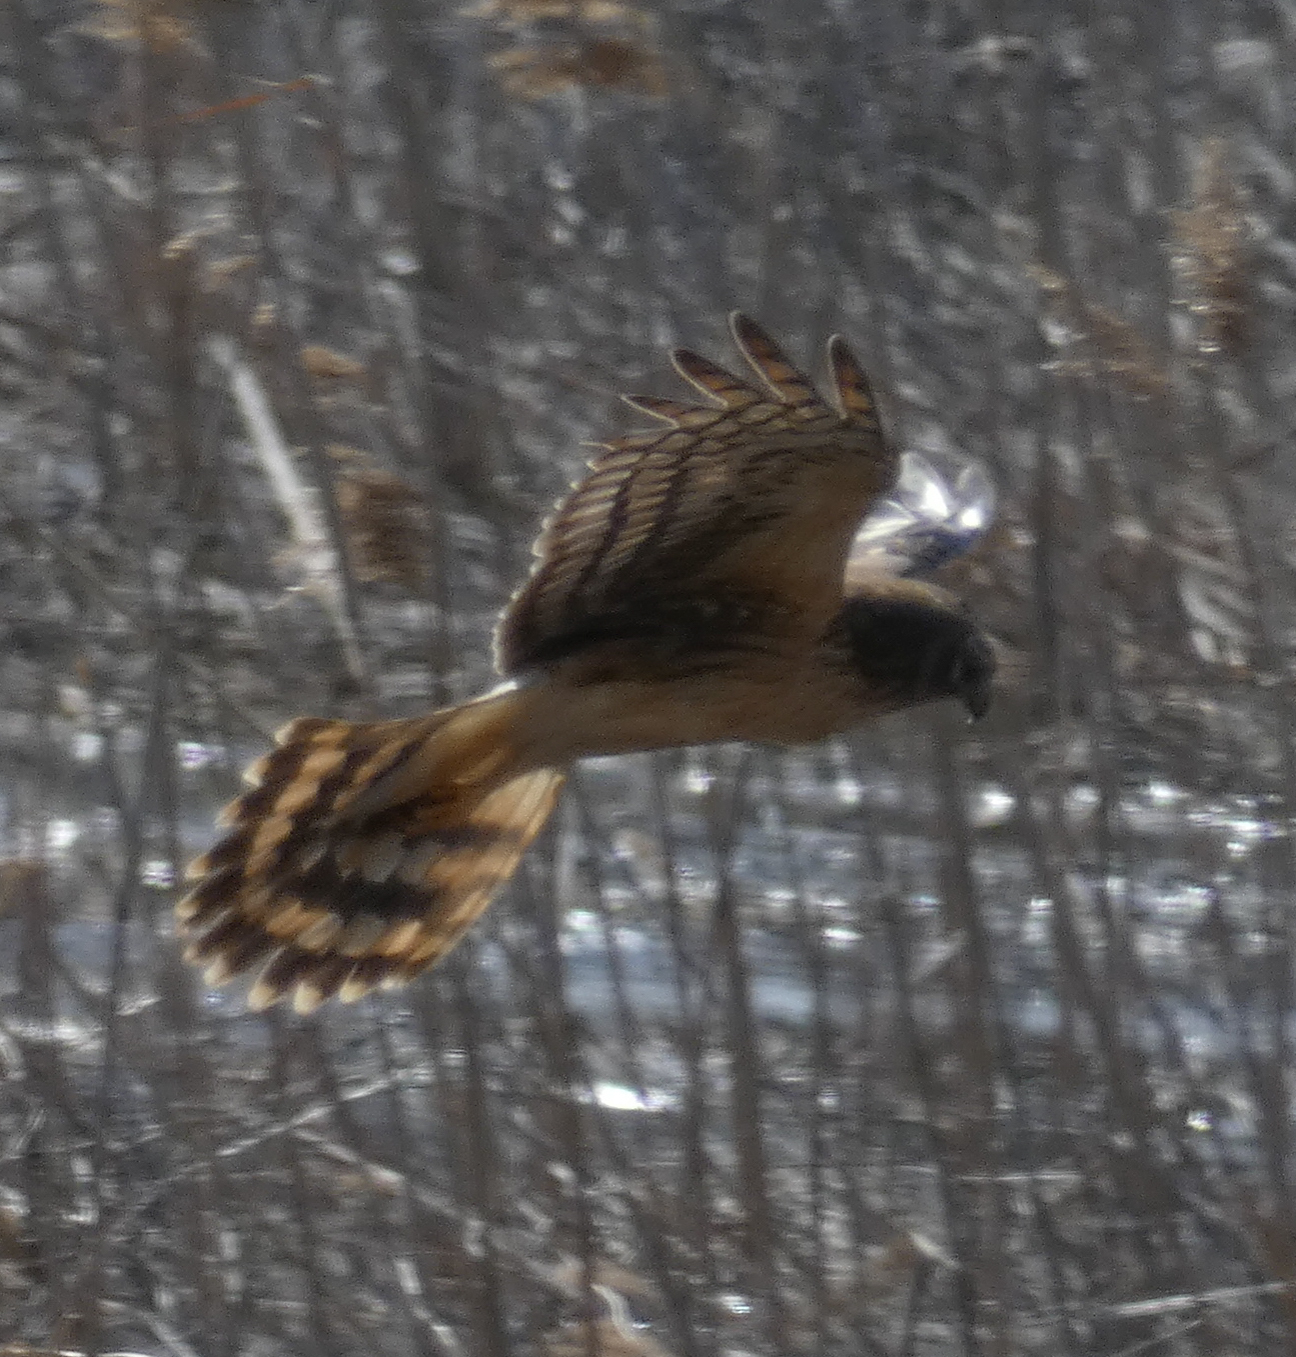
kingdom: Animalia
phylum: Chordata
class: Aves
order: Accipitriformes
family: Accipitridae
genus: Circus
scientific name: Circus cyaneus
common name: Hen harrier
